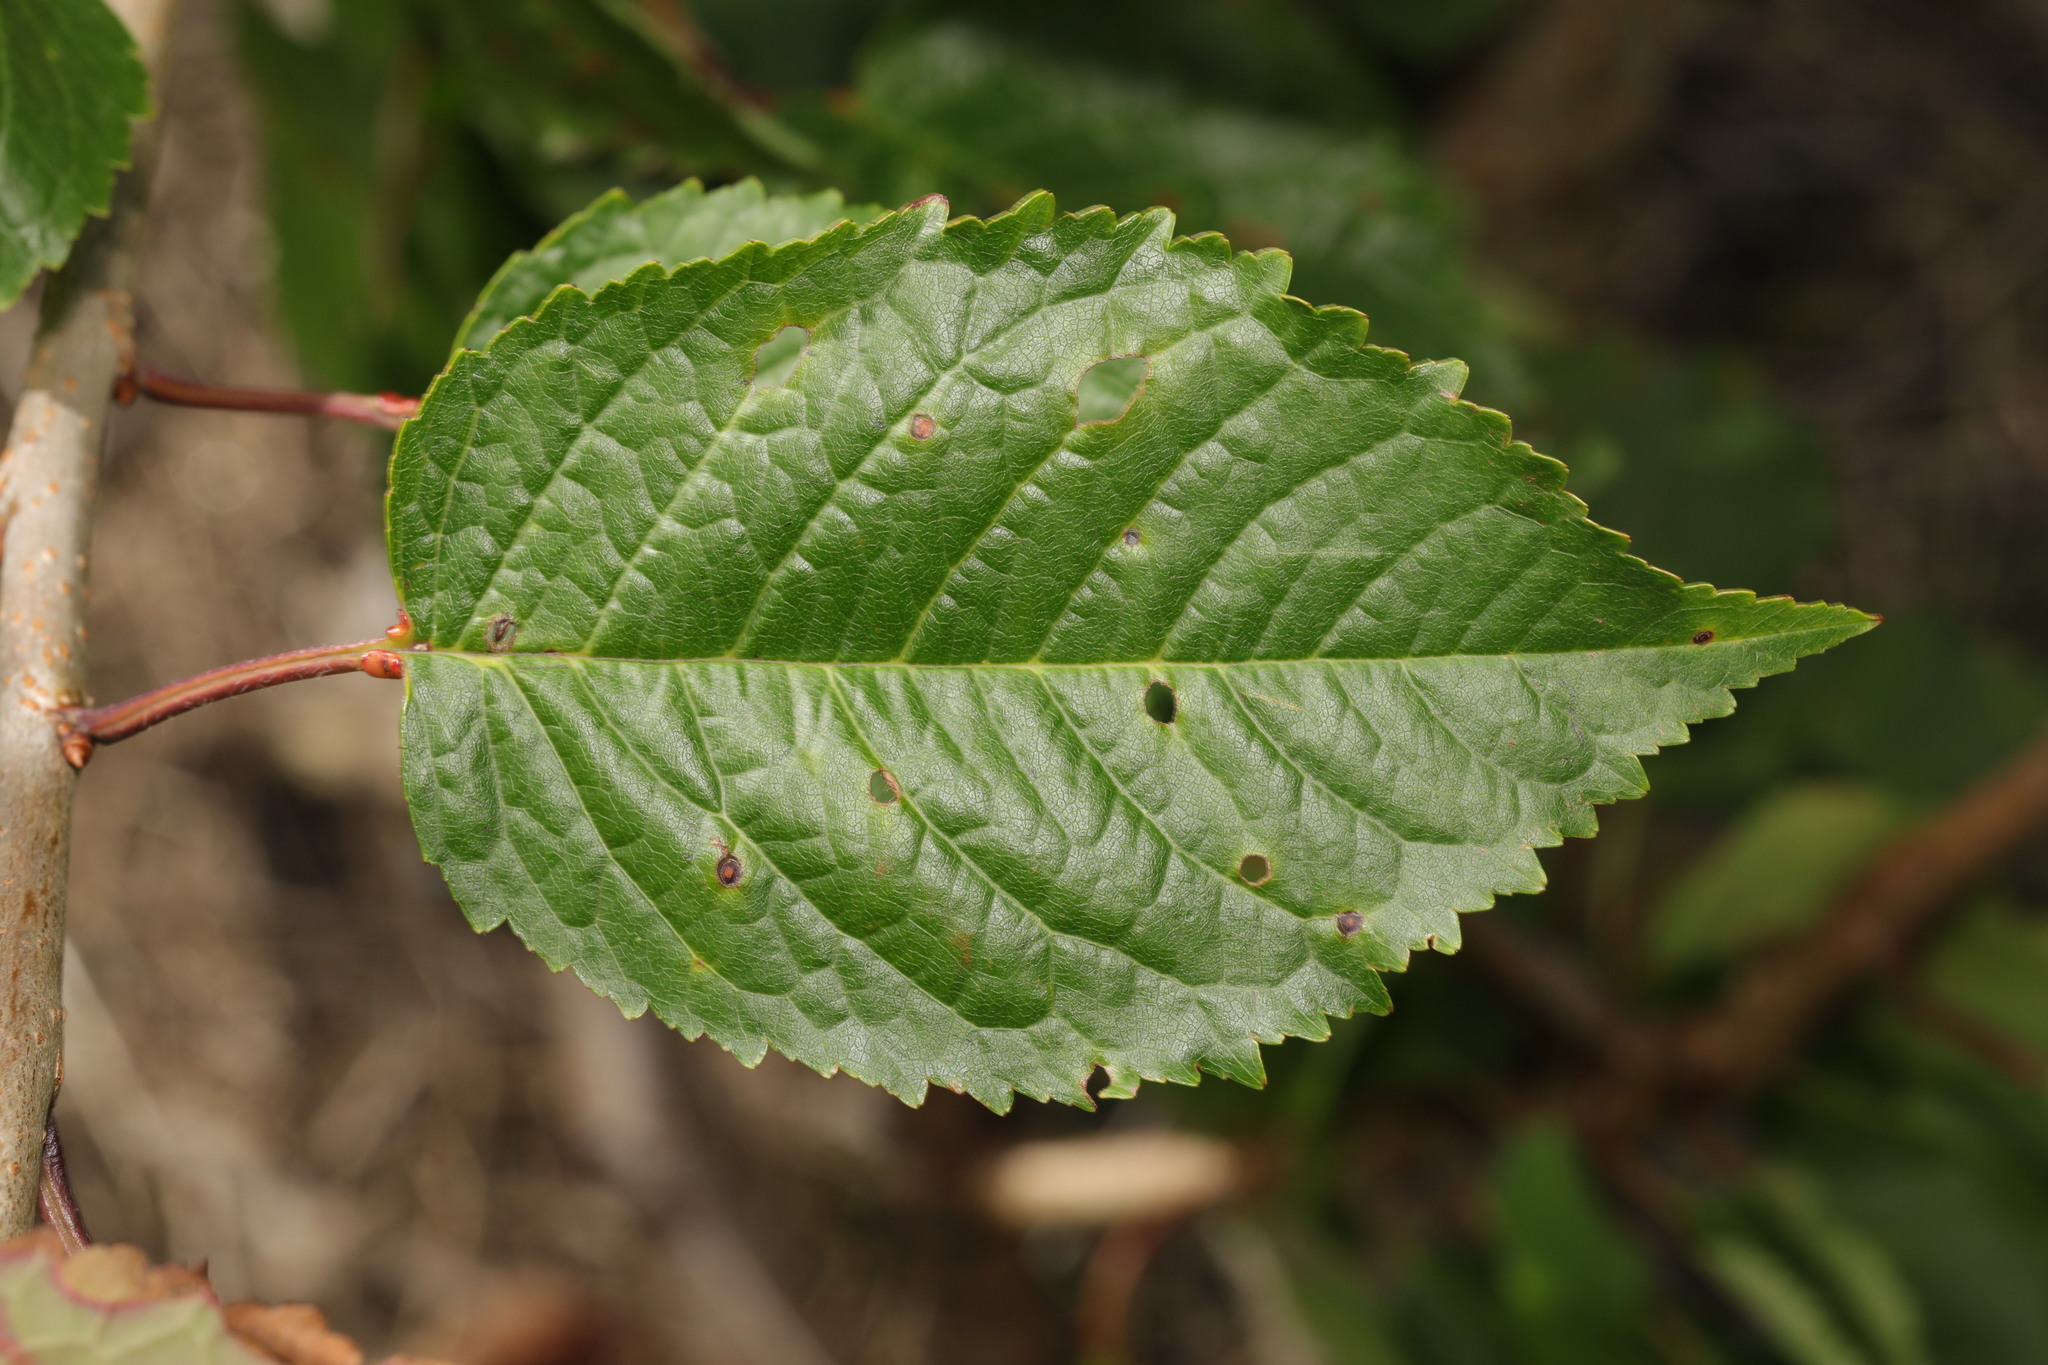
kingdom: Plantae
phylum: Tracheophyta
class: Magnoliopsida
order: Rosales
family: Rosaceae
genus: Prunus
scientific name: Prunus avium
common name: Sweet cherry
